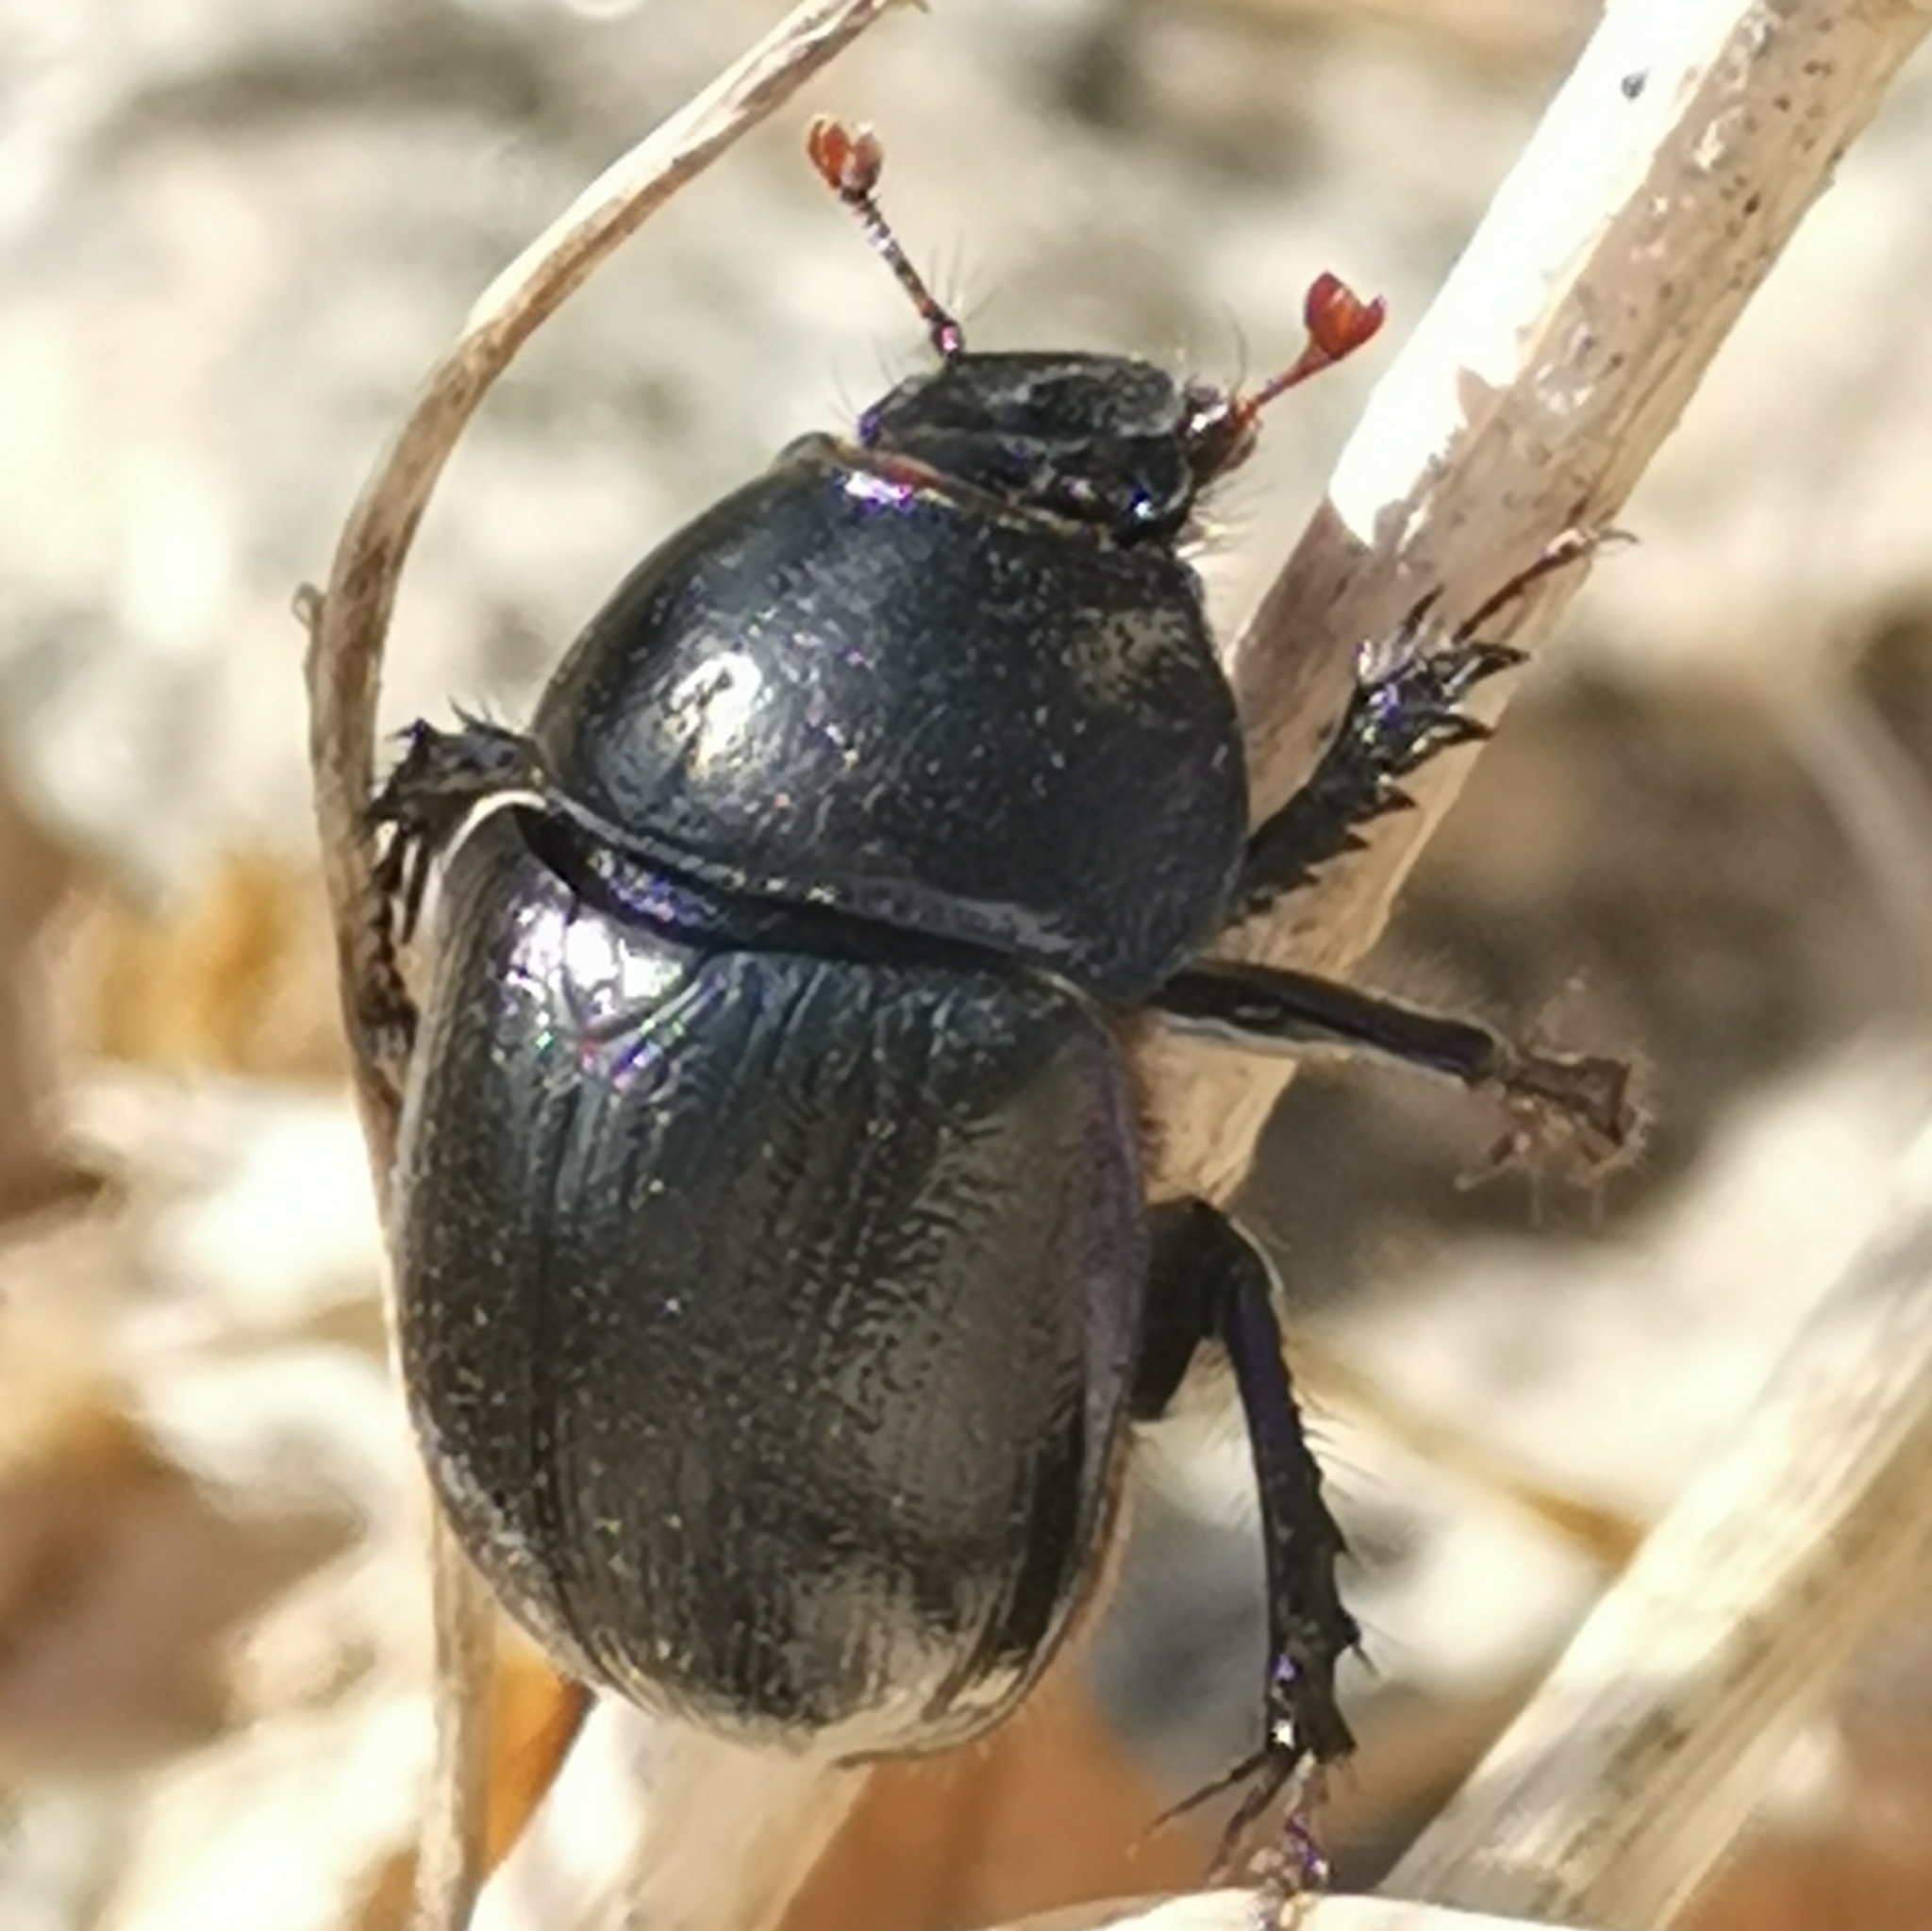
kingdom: Animalia
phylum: Arthropoda
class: Insecta
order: Coleoptera
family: Geotrupidae
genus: Anoplotrupes
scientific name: Anoplotrupes stercorosus
